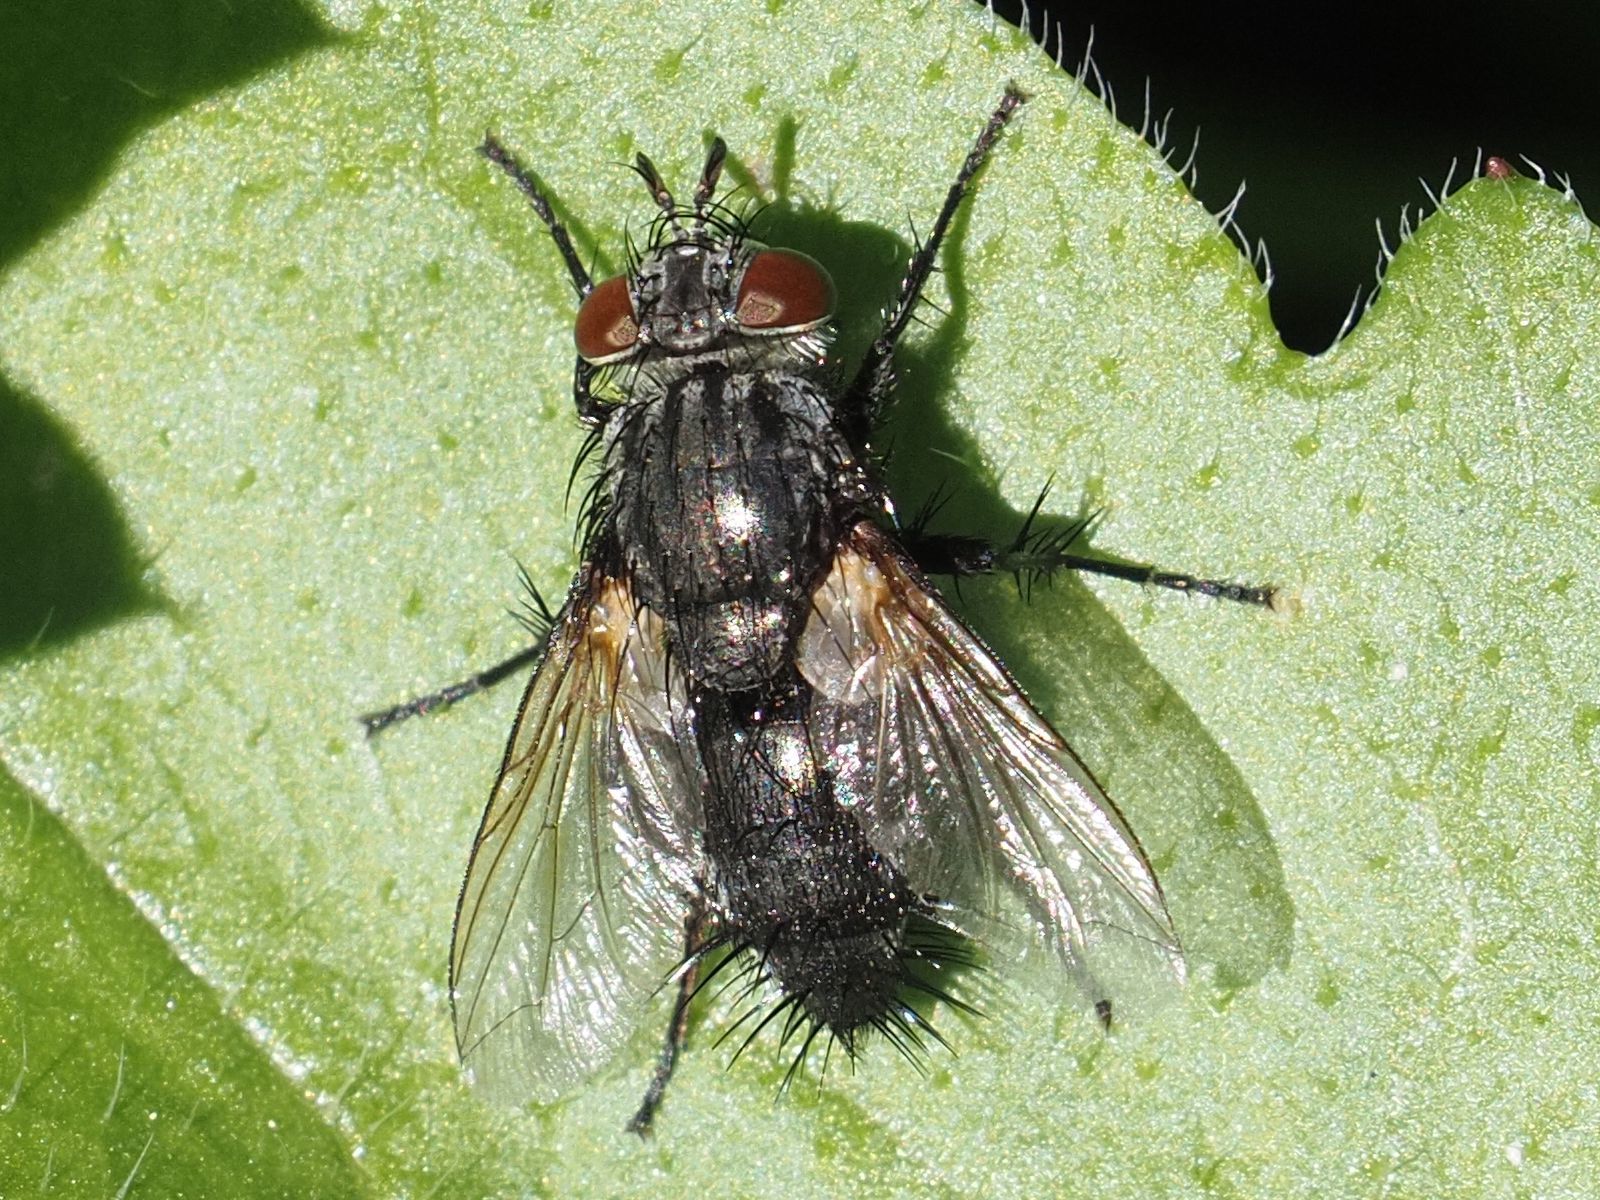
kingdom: Animalia
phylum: Arthropoda
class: Insecta
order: Diptera
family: Tachinidae
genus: Voria
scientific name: Voria ruralis
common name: Parasitic fly
